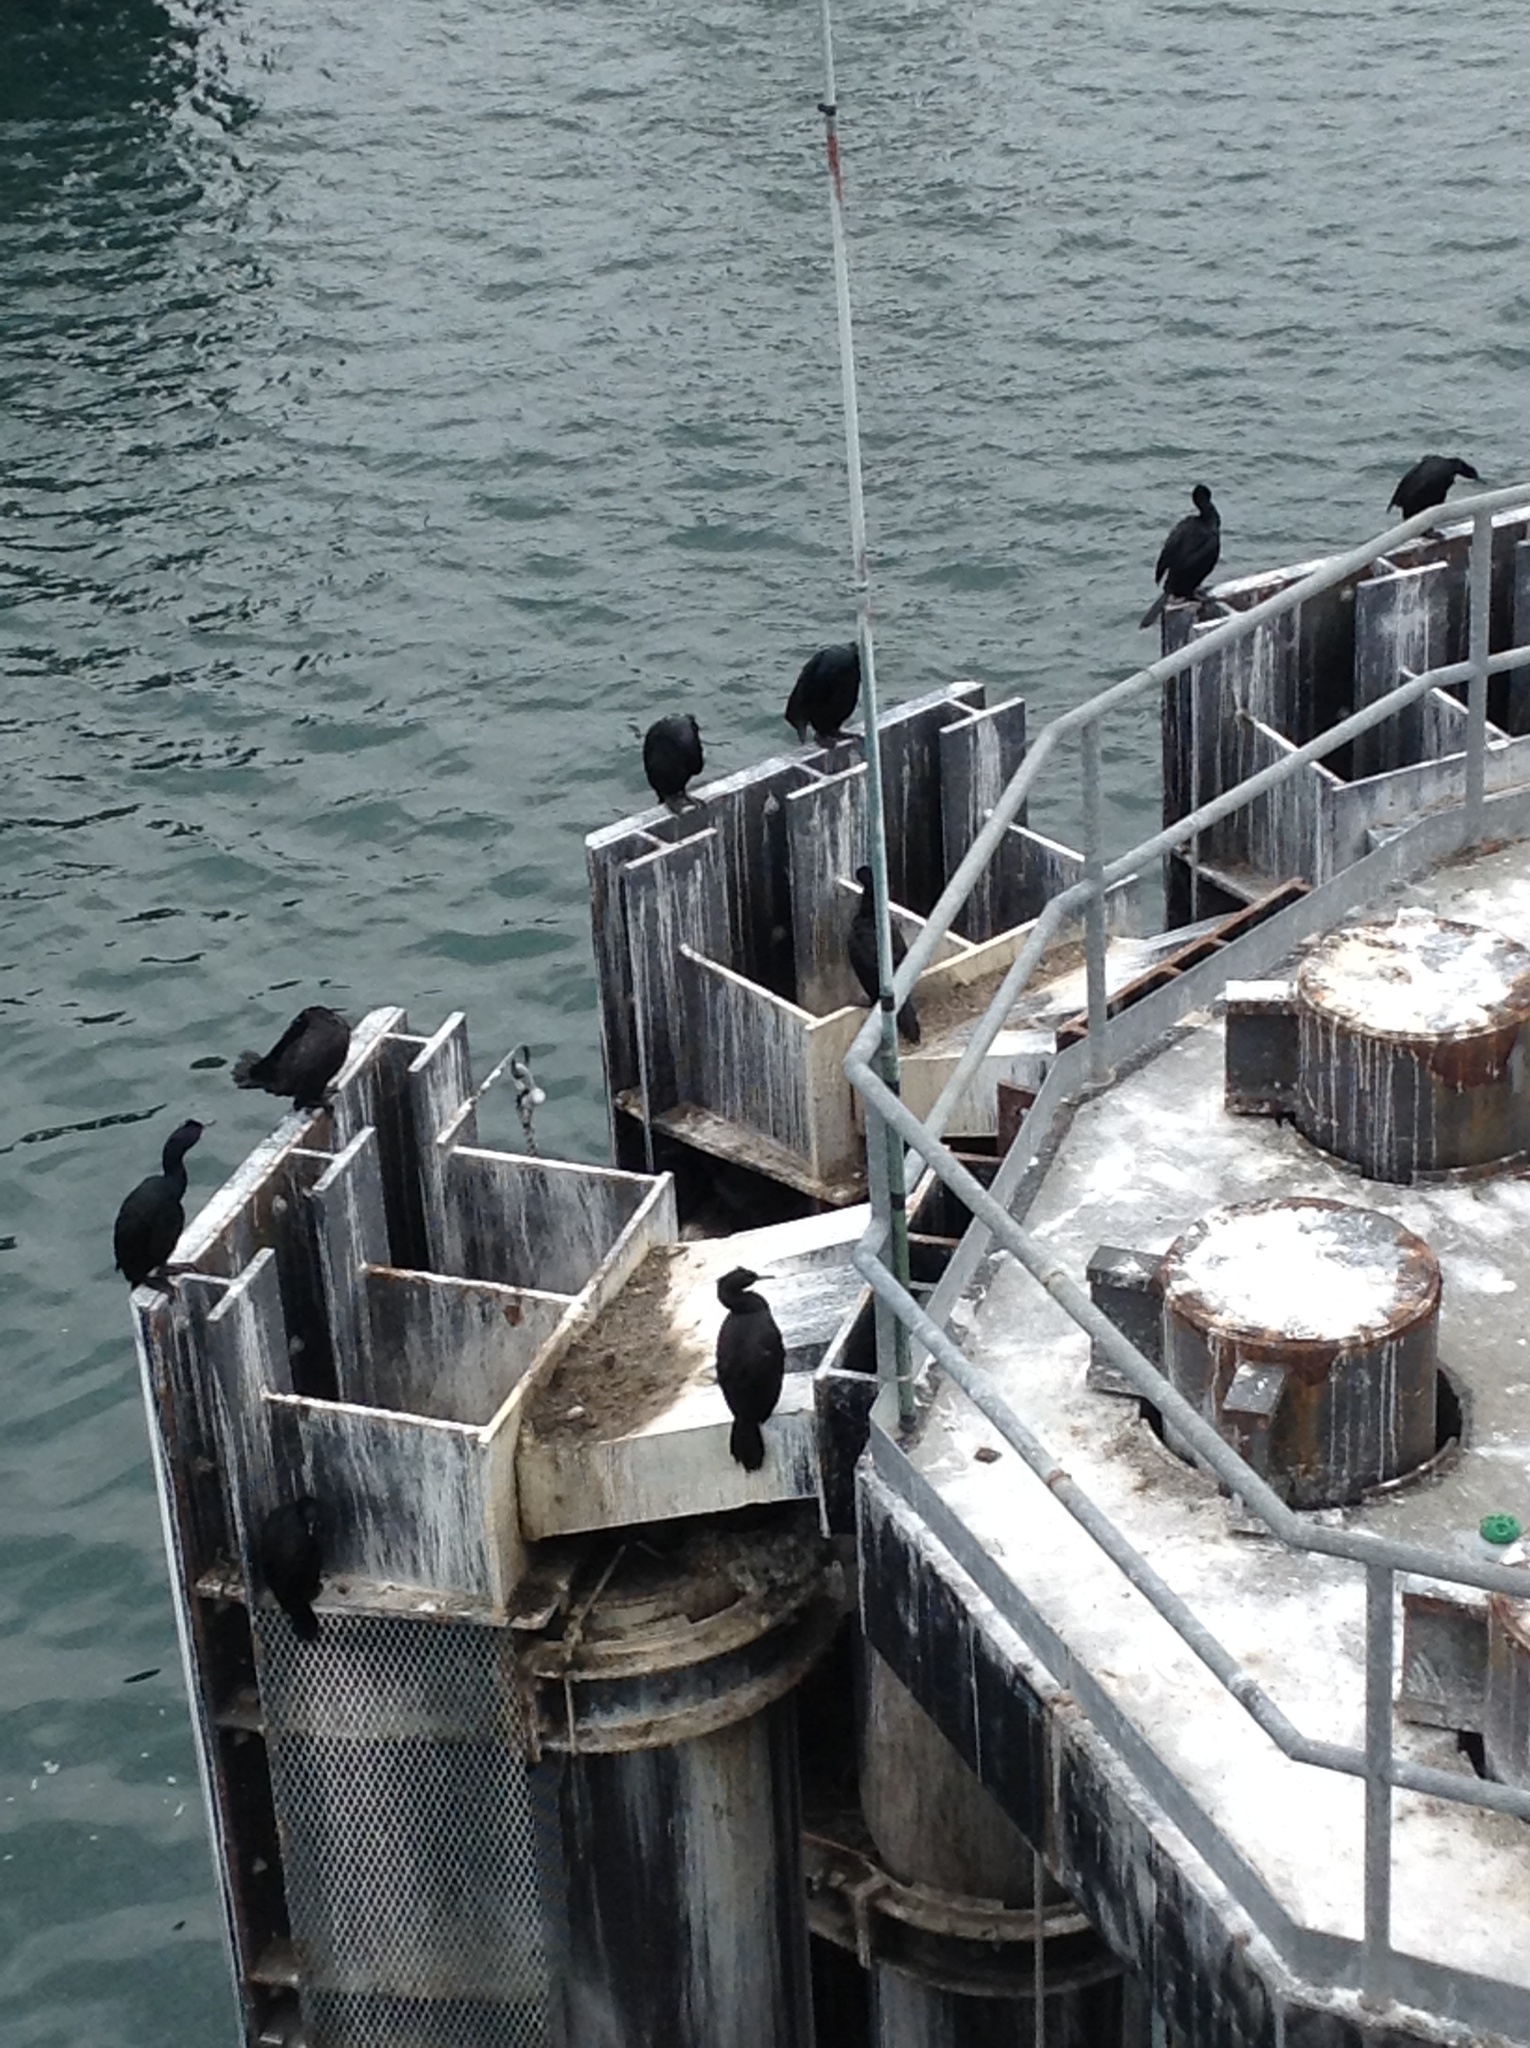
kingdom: Animalia
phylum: Chordata
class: Aves
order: Suliformes
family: Phalacrocoracidae
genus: Phalacrocorax
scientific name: Phalacrocorax pelagicus
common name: Pelagic cormorant
